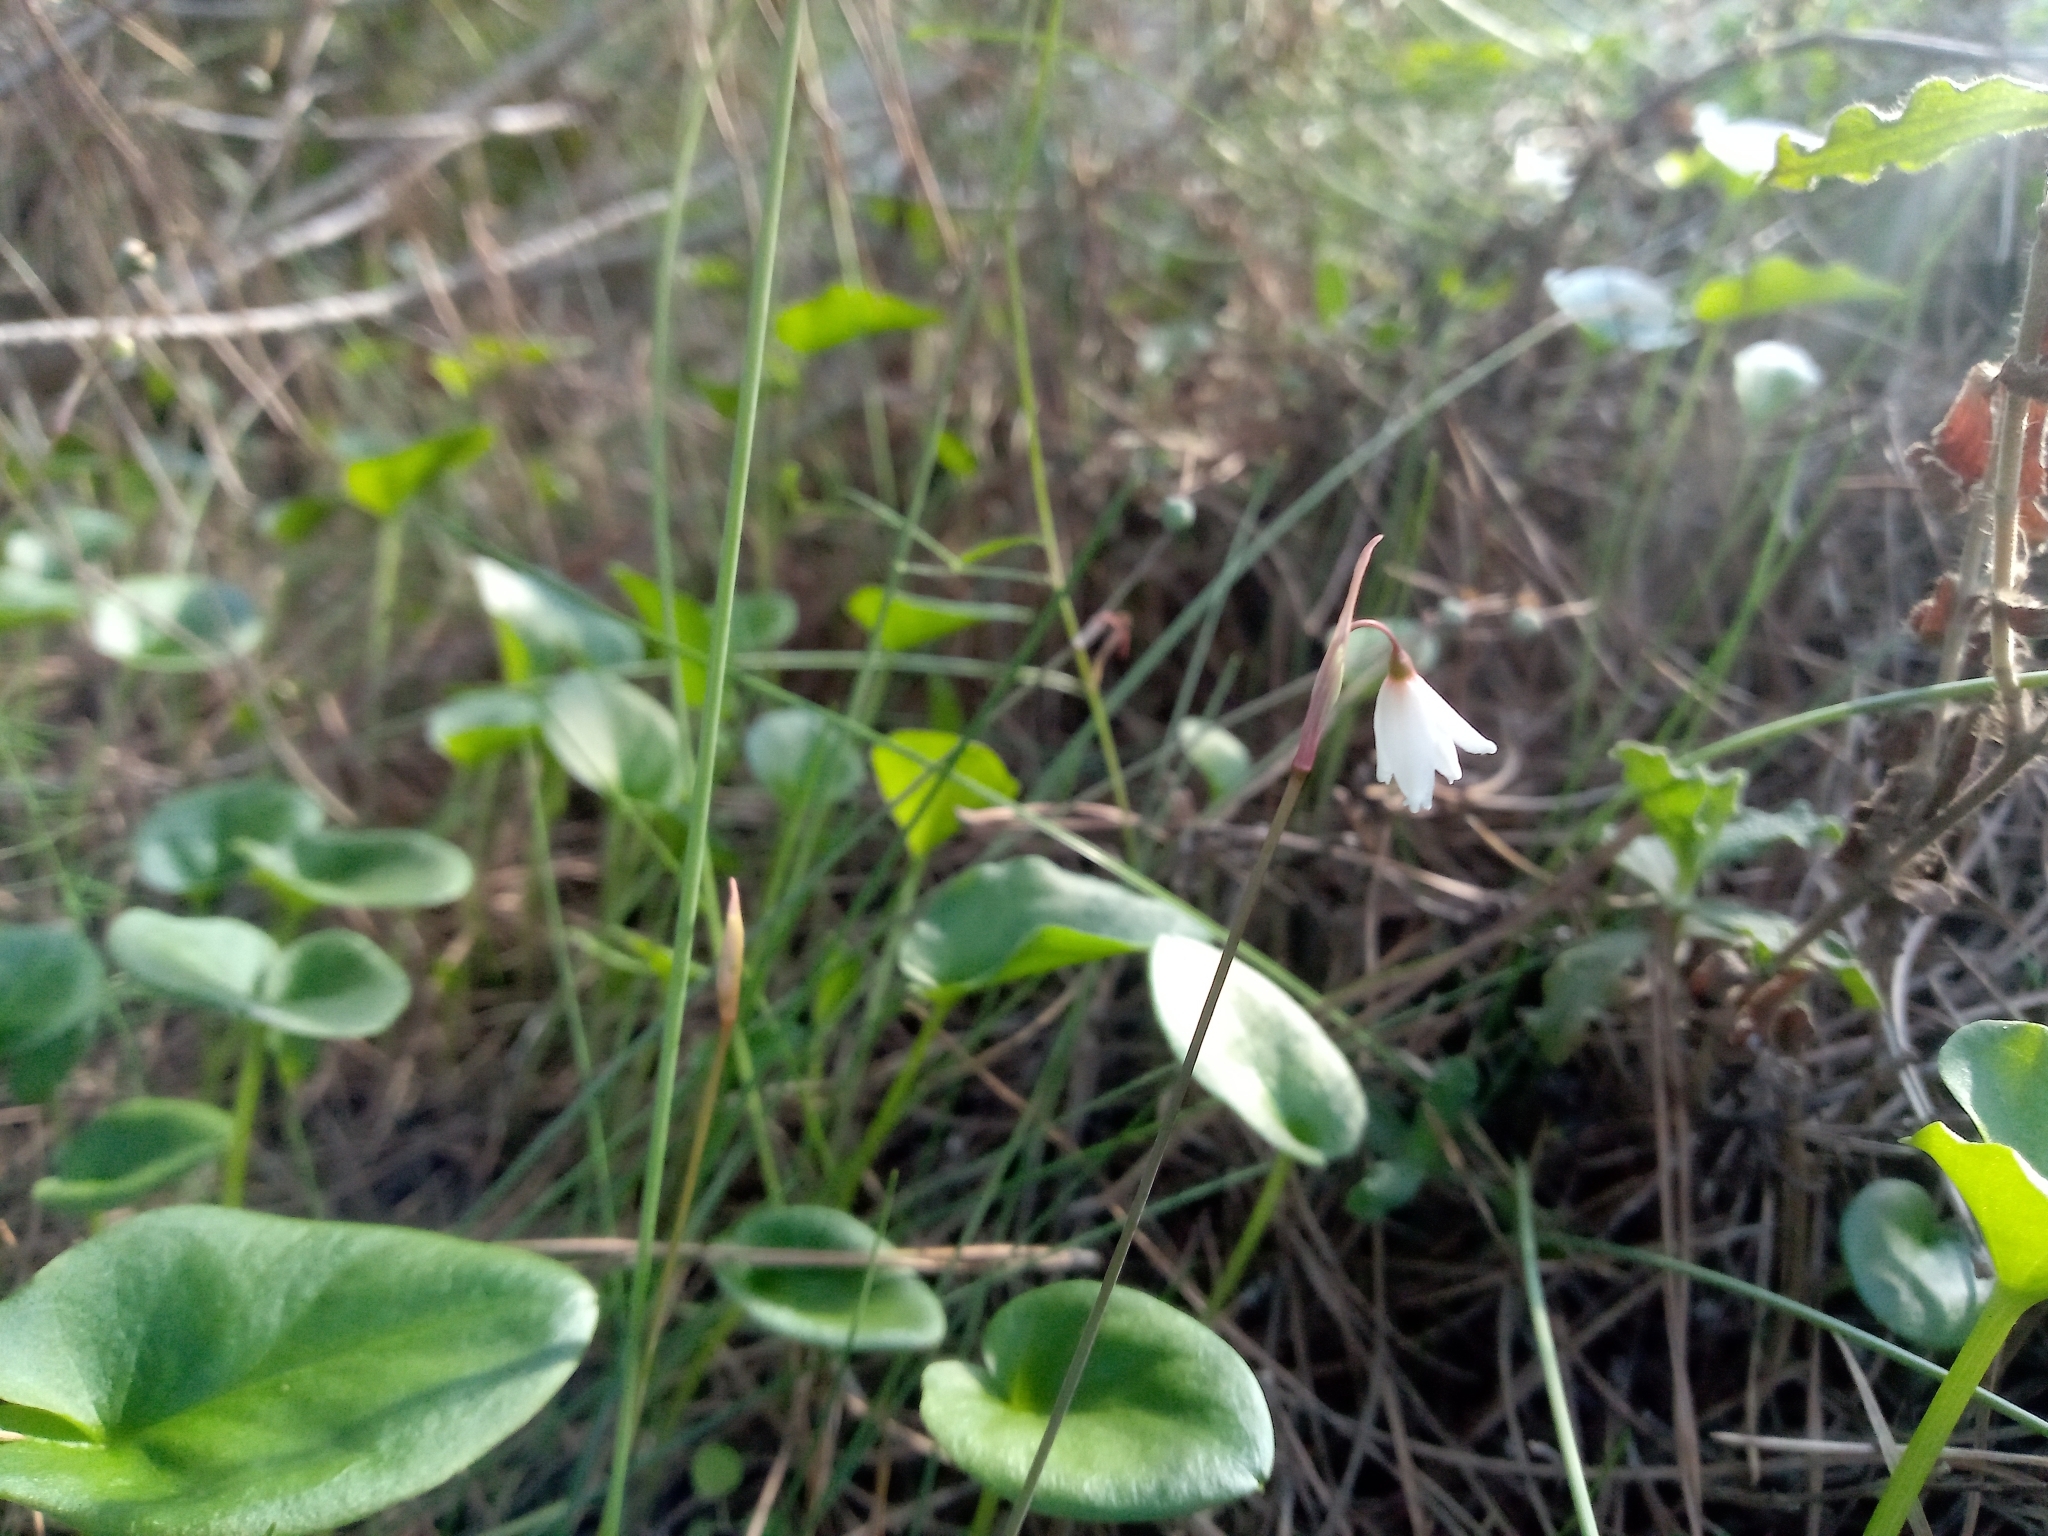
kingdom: Plantae
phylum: Tracheophyta
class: Liliopsida
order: Asparagales
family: Amaryllidaceae
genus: Acis
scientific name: Acis autumnalis
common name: Autumn snowflake
